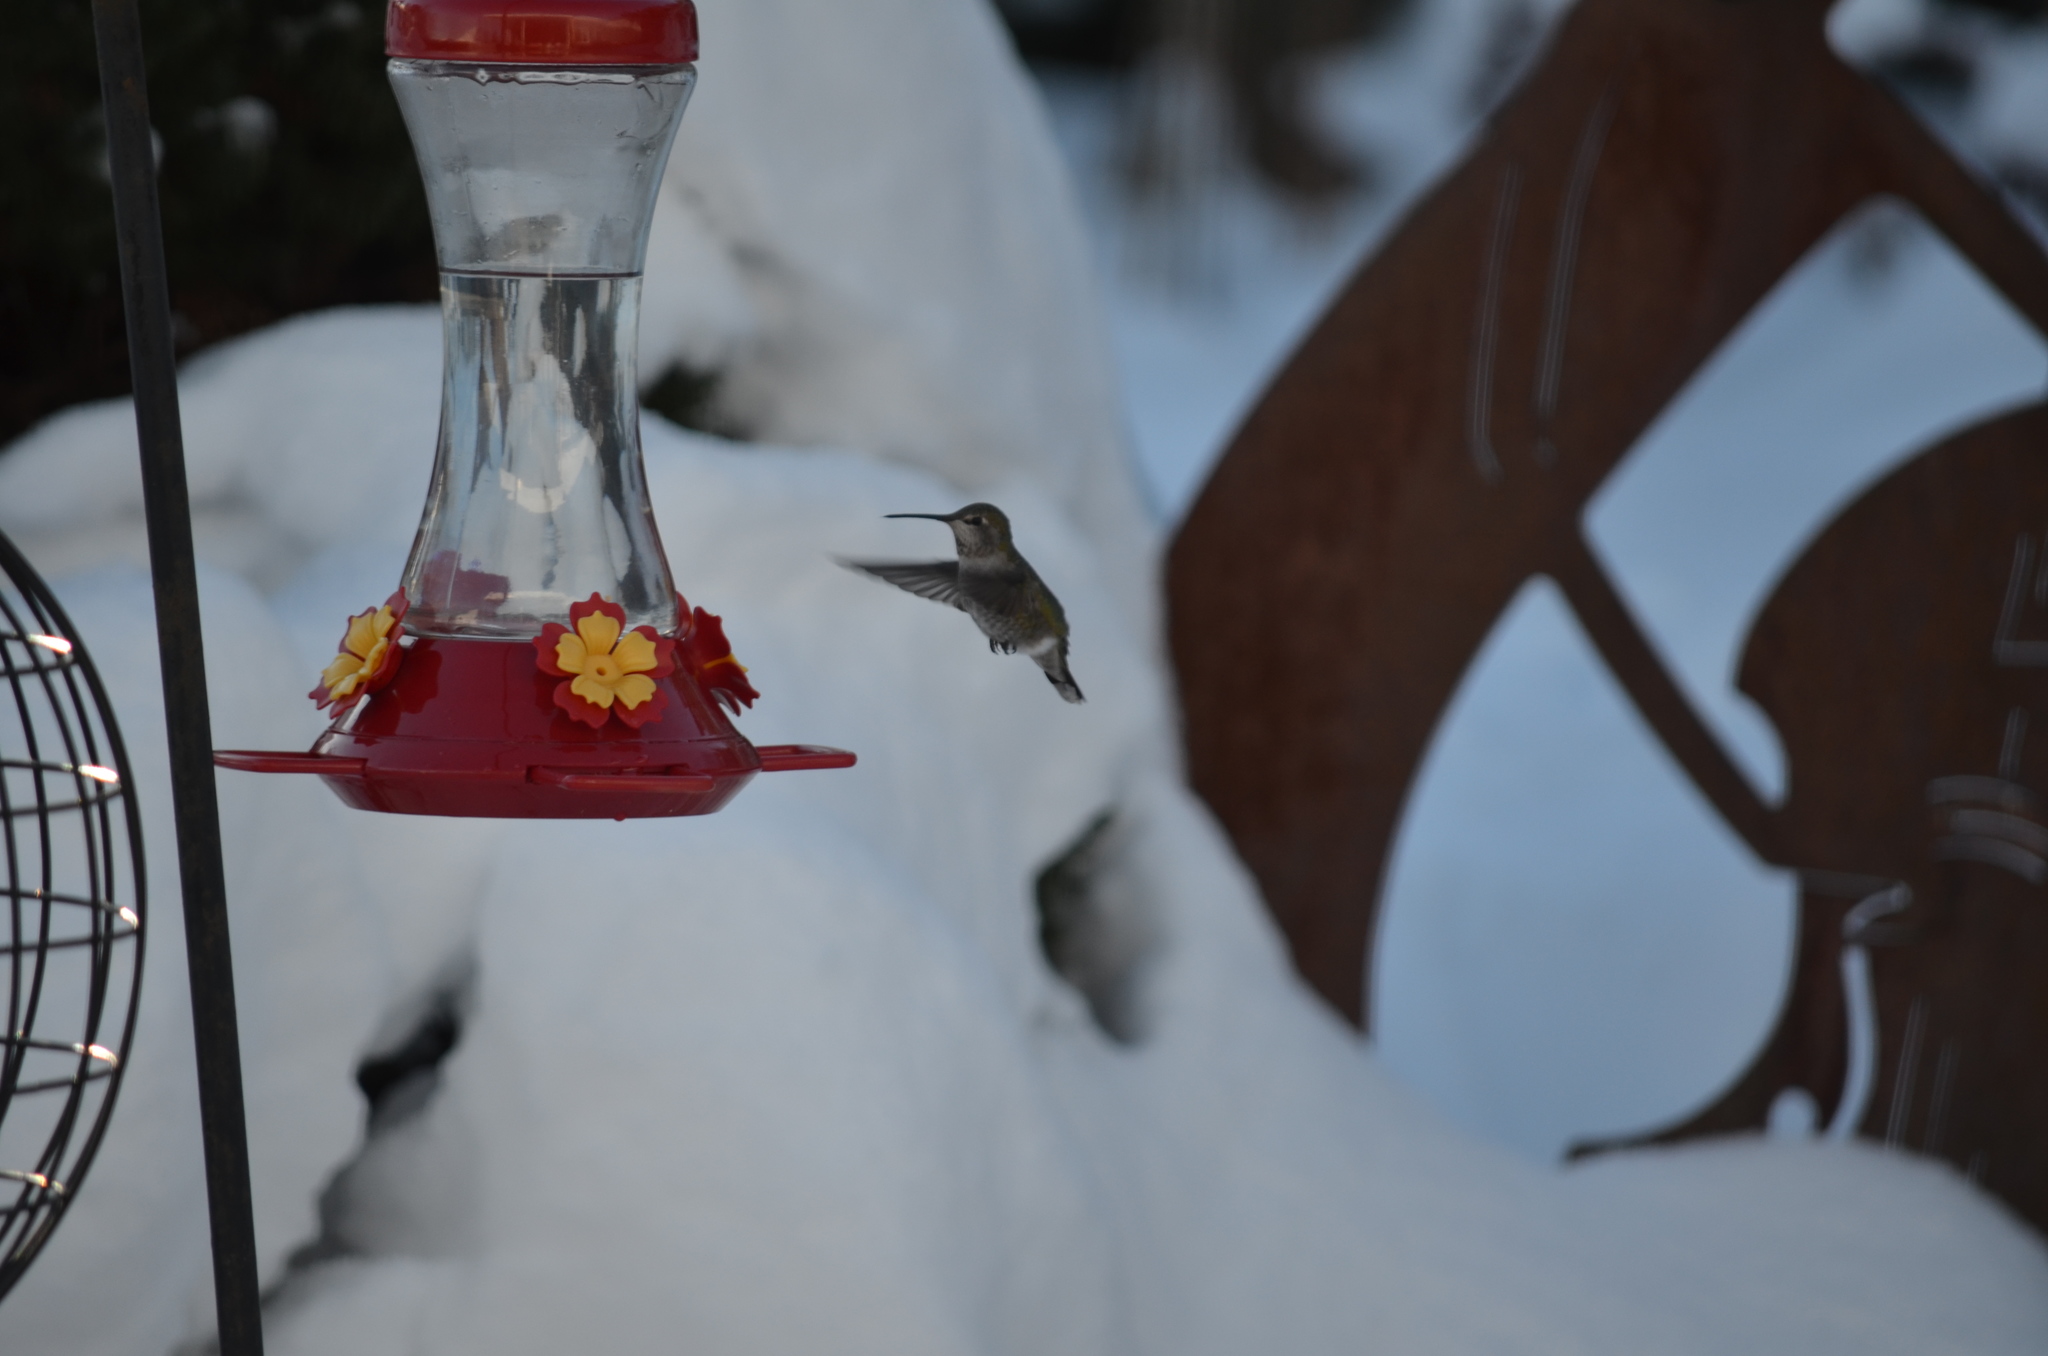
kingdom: Animalia
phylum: Chordata
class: Aves
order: Apodiformes
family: Trochilidae
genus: Calypte
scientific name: Calypte anna
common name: Anna's hummingbird
